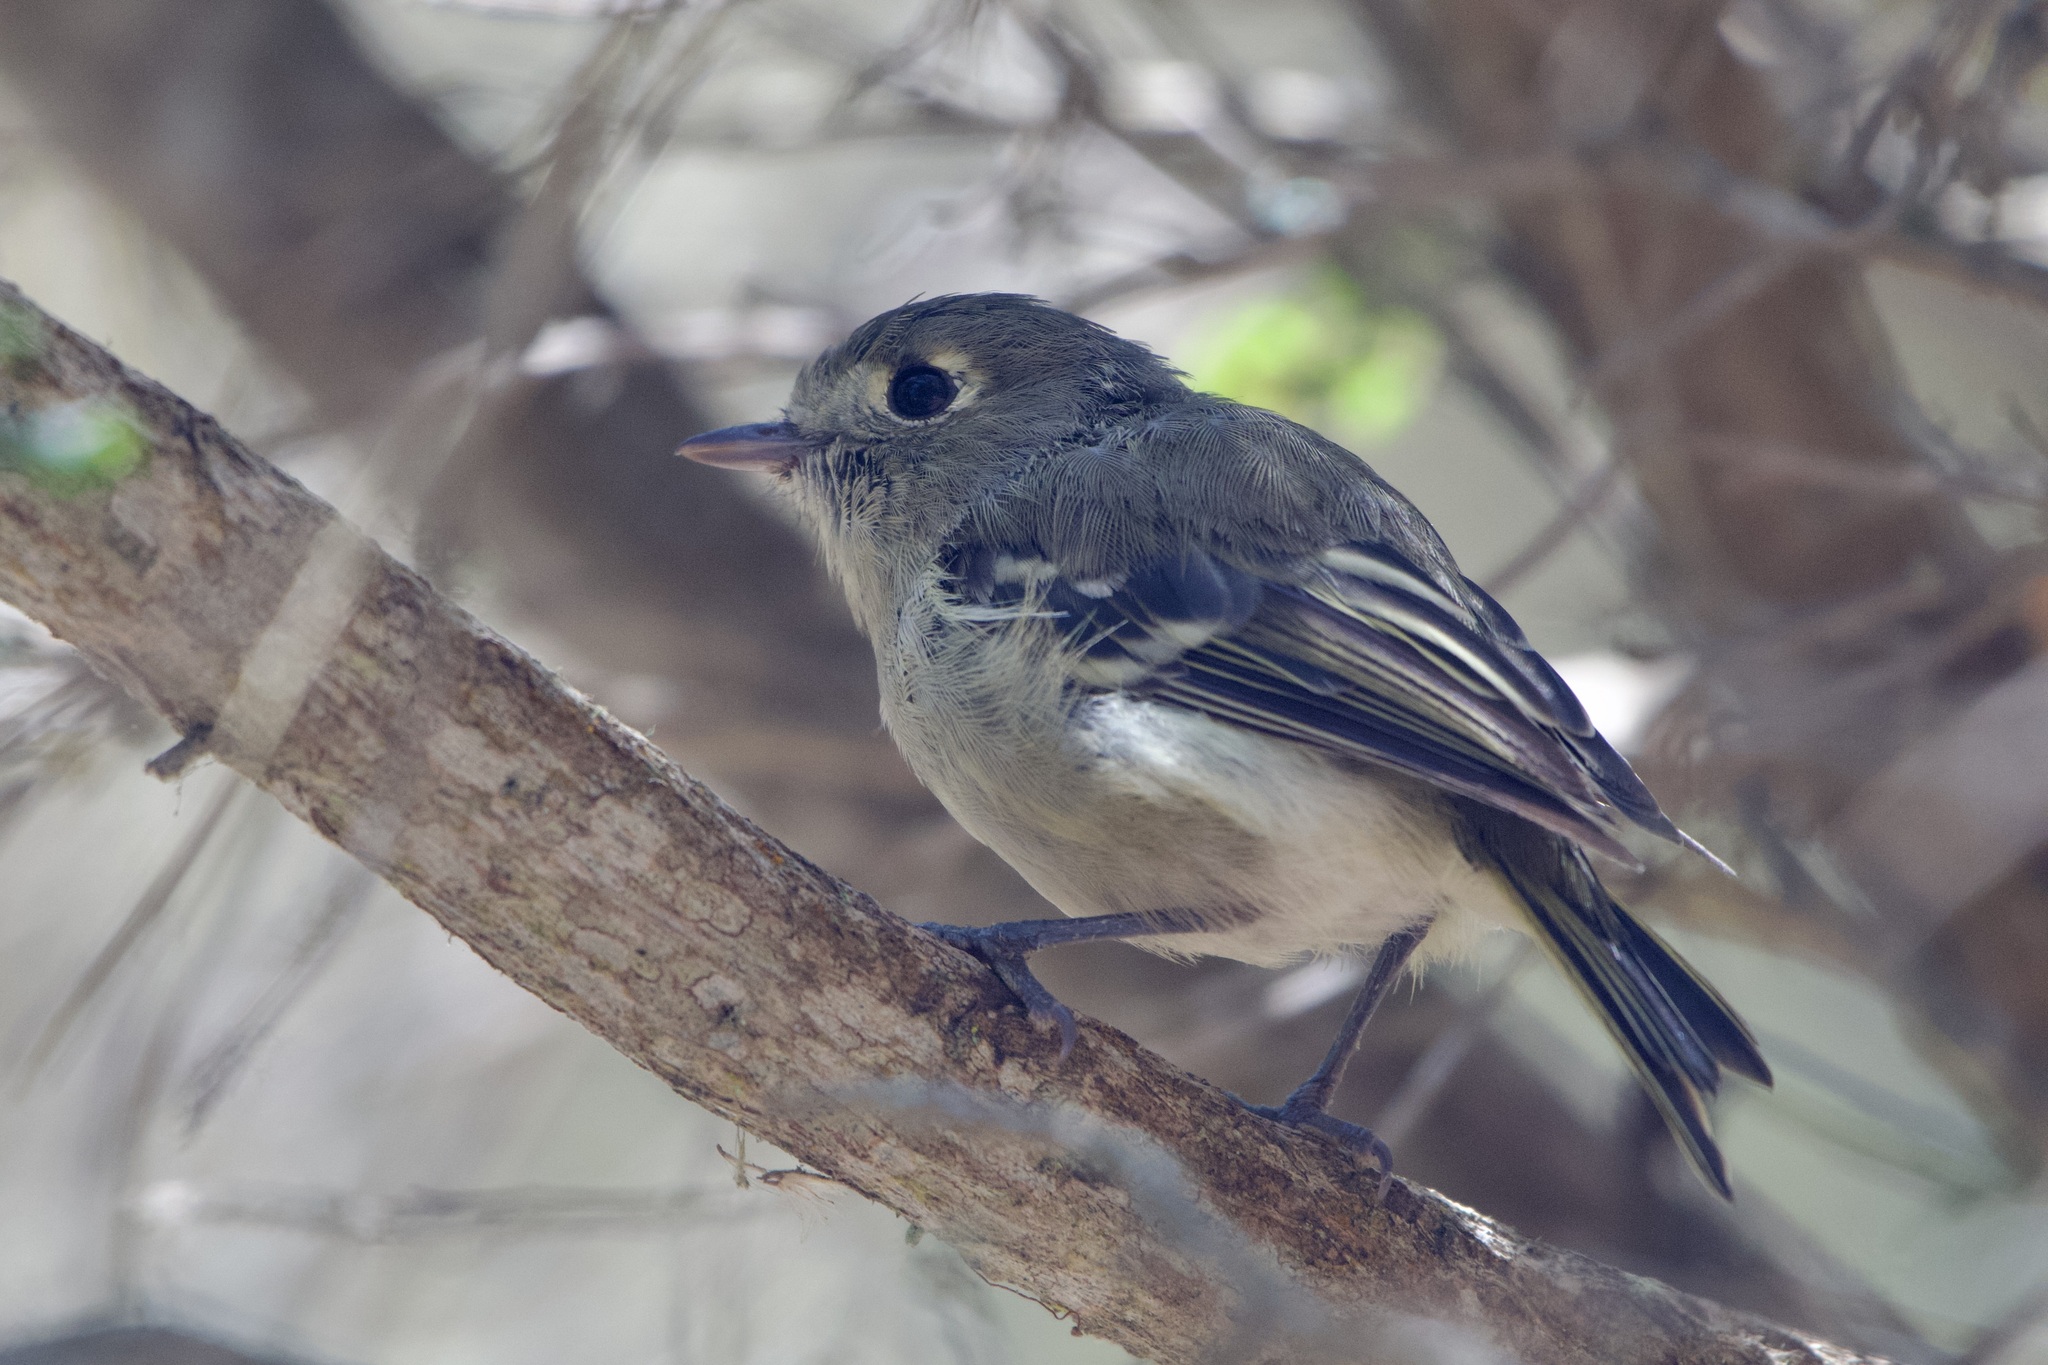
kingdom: Animalia
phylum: Chordata
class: Aves
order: Passeriformes
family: Vireonidae
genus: Vireo
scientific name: Vireo huttoni
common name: Hutton's vireo
